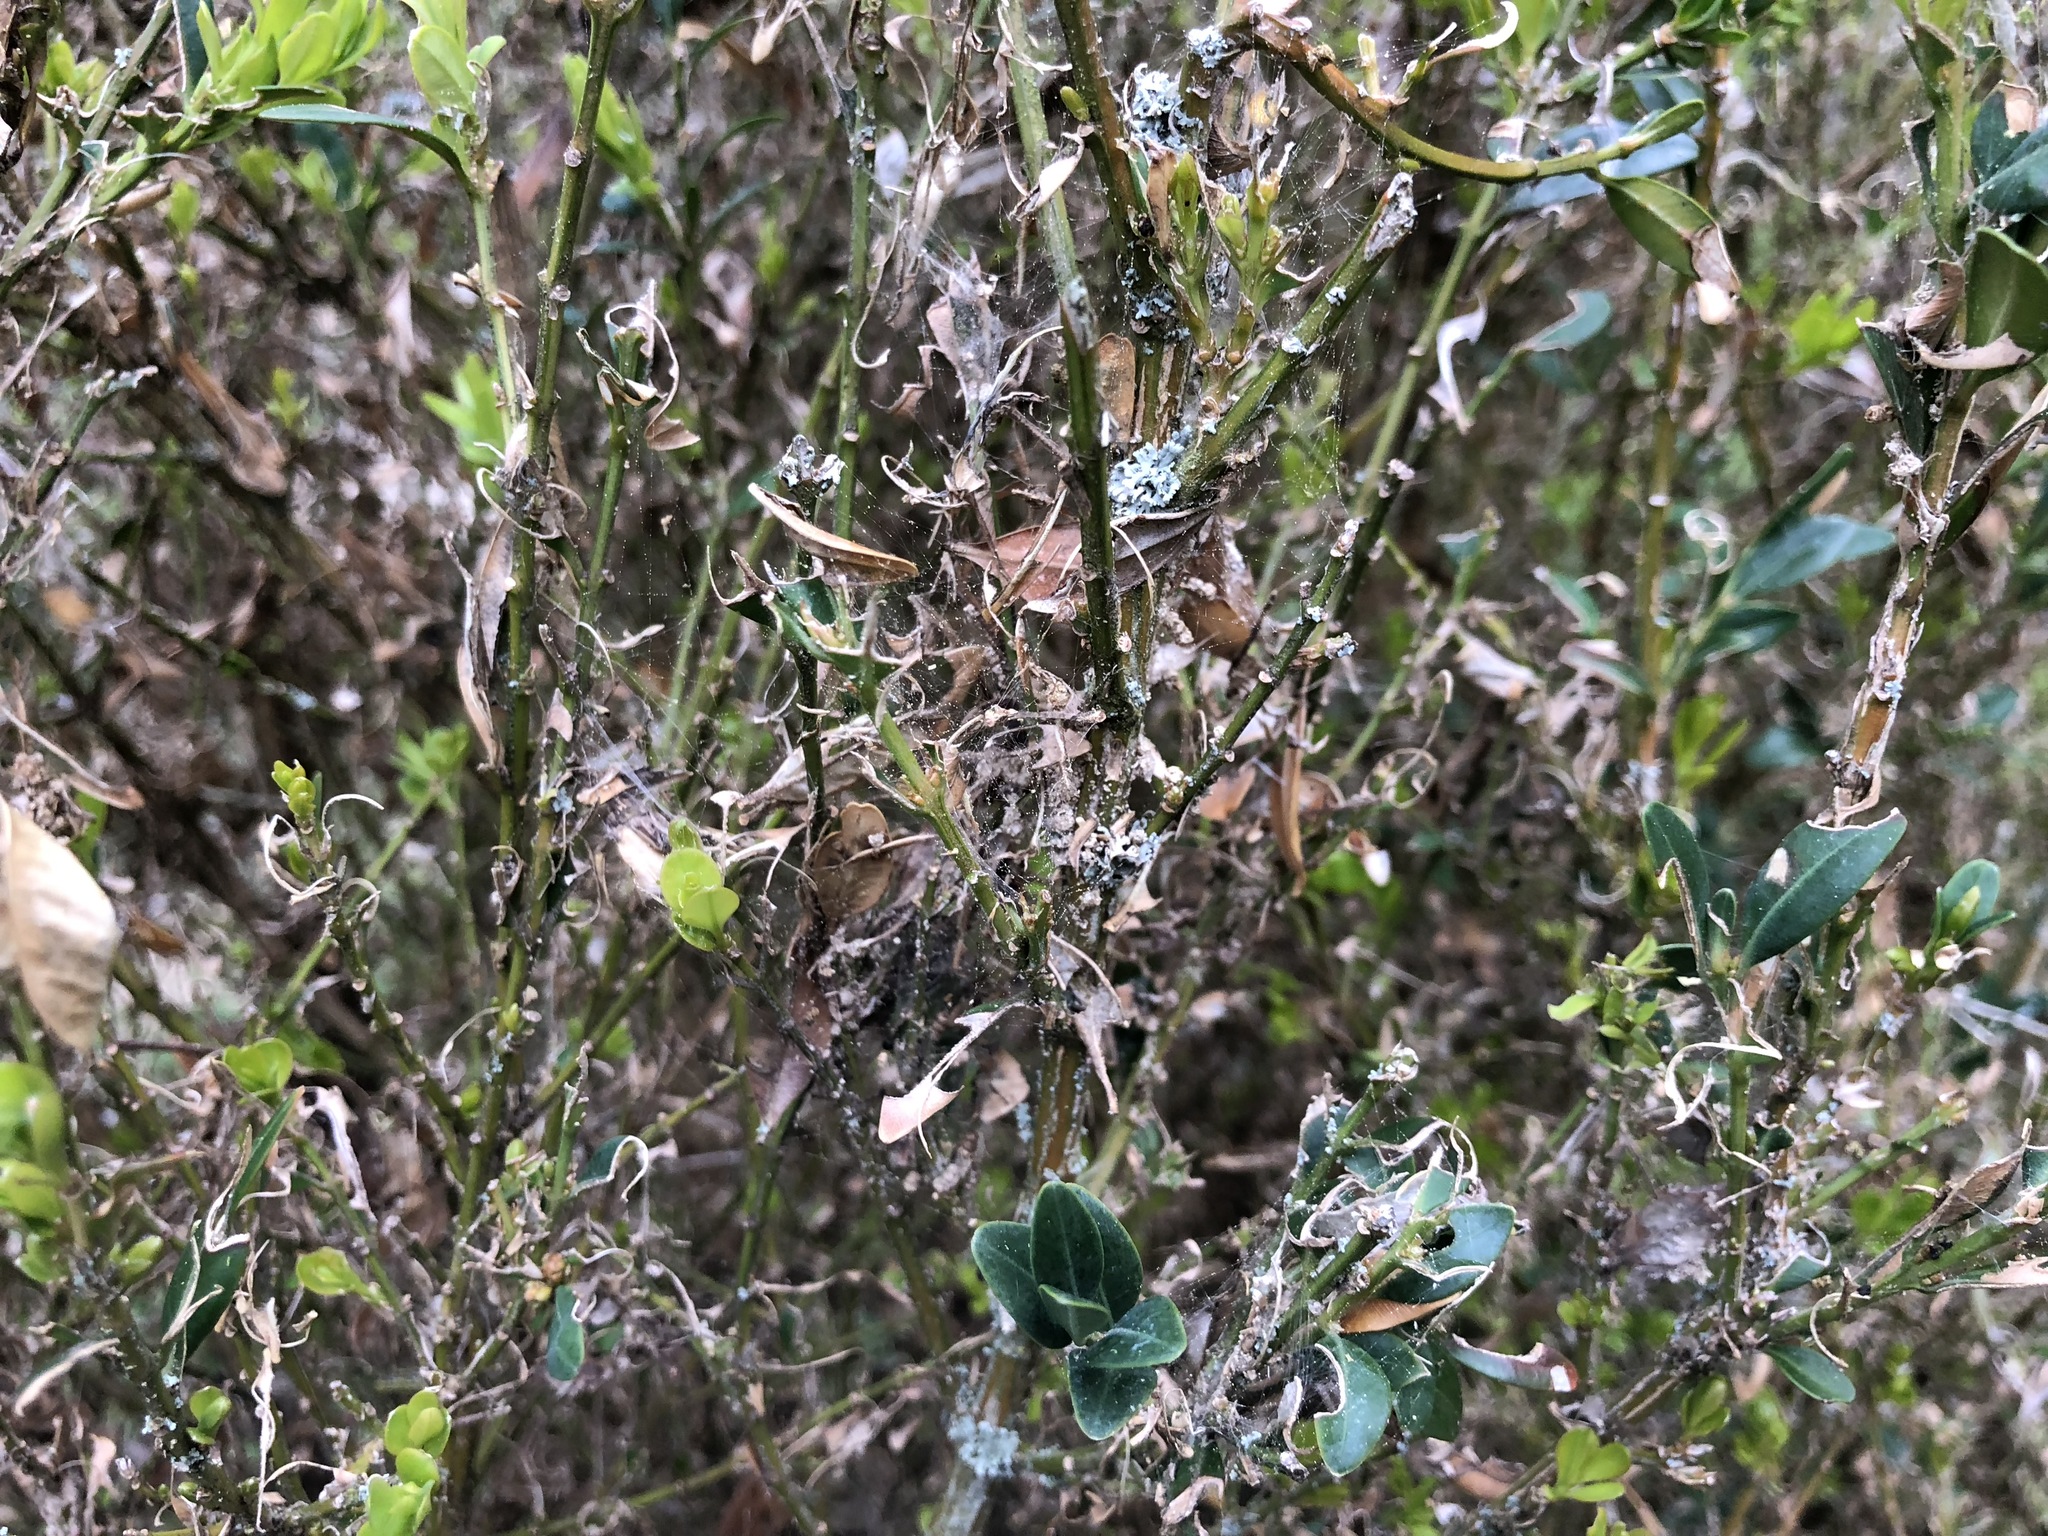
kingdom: Animalia
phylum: Arthropoda
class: Insecta
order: Lepidoptera
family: Crambidae
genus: Cydalima
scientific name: Cydalima perspectalis
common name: Box tree moth
